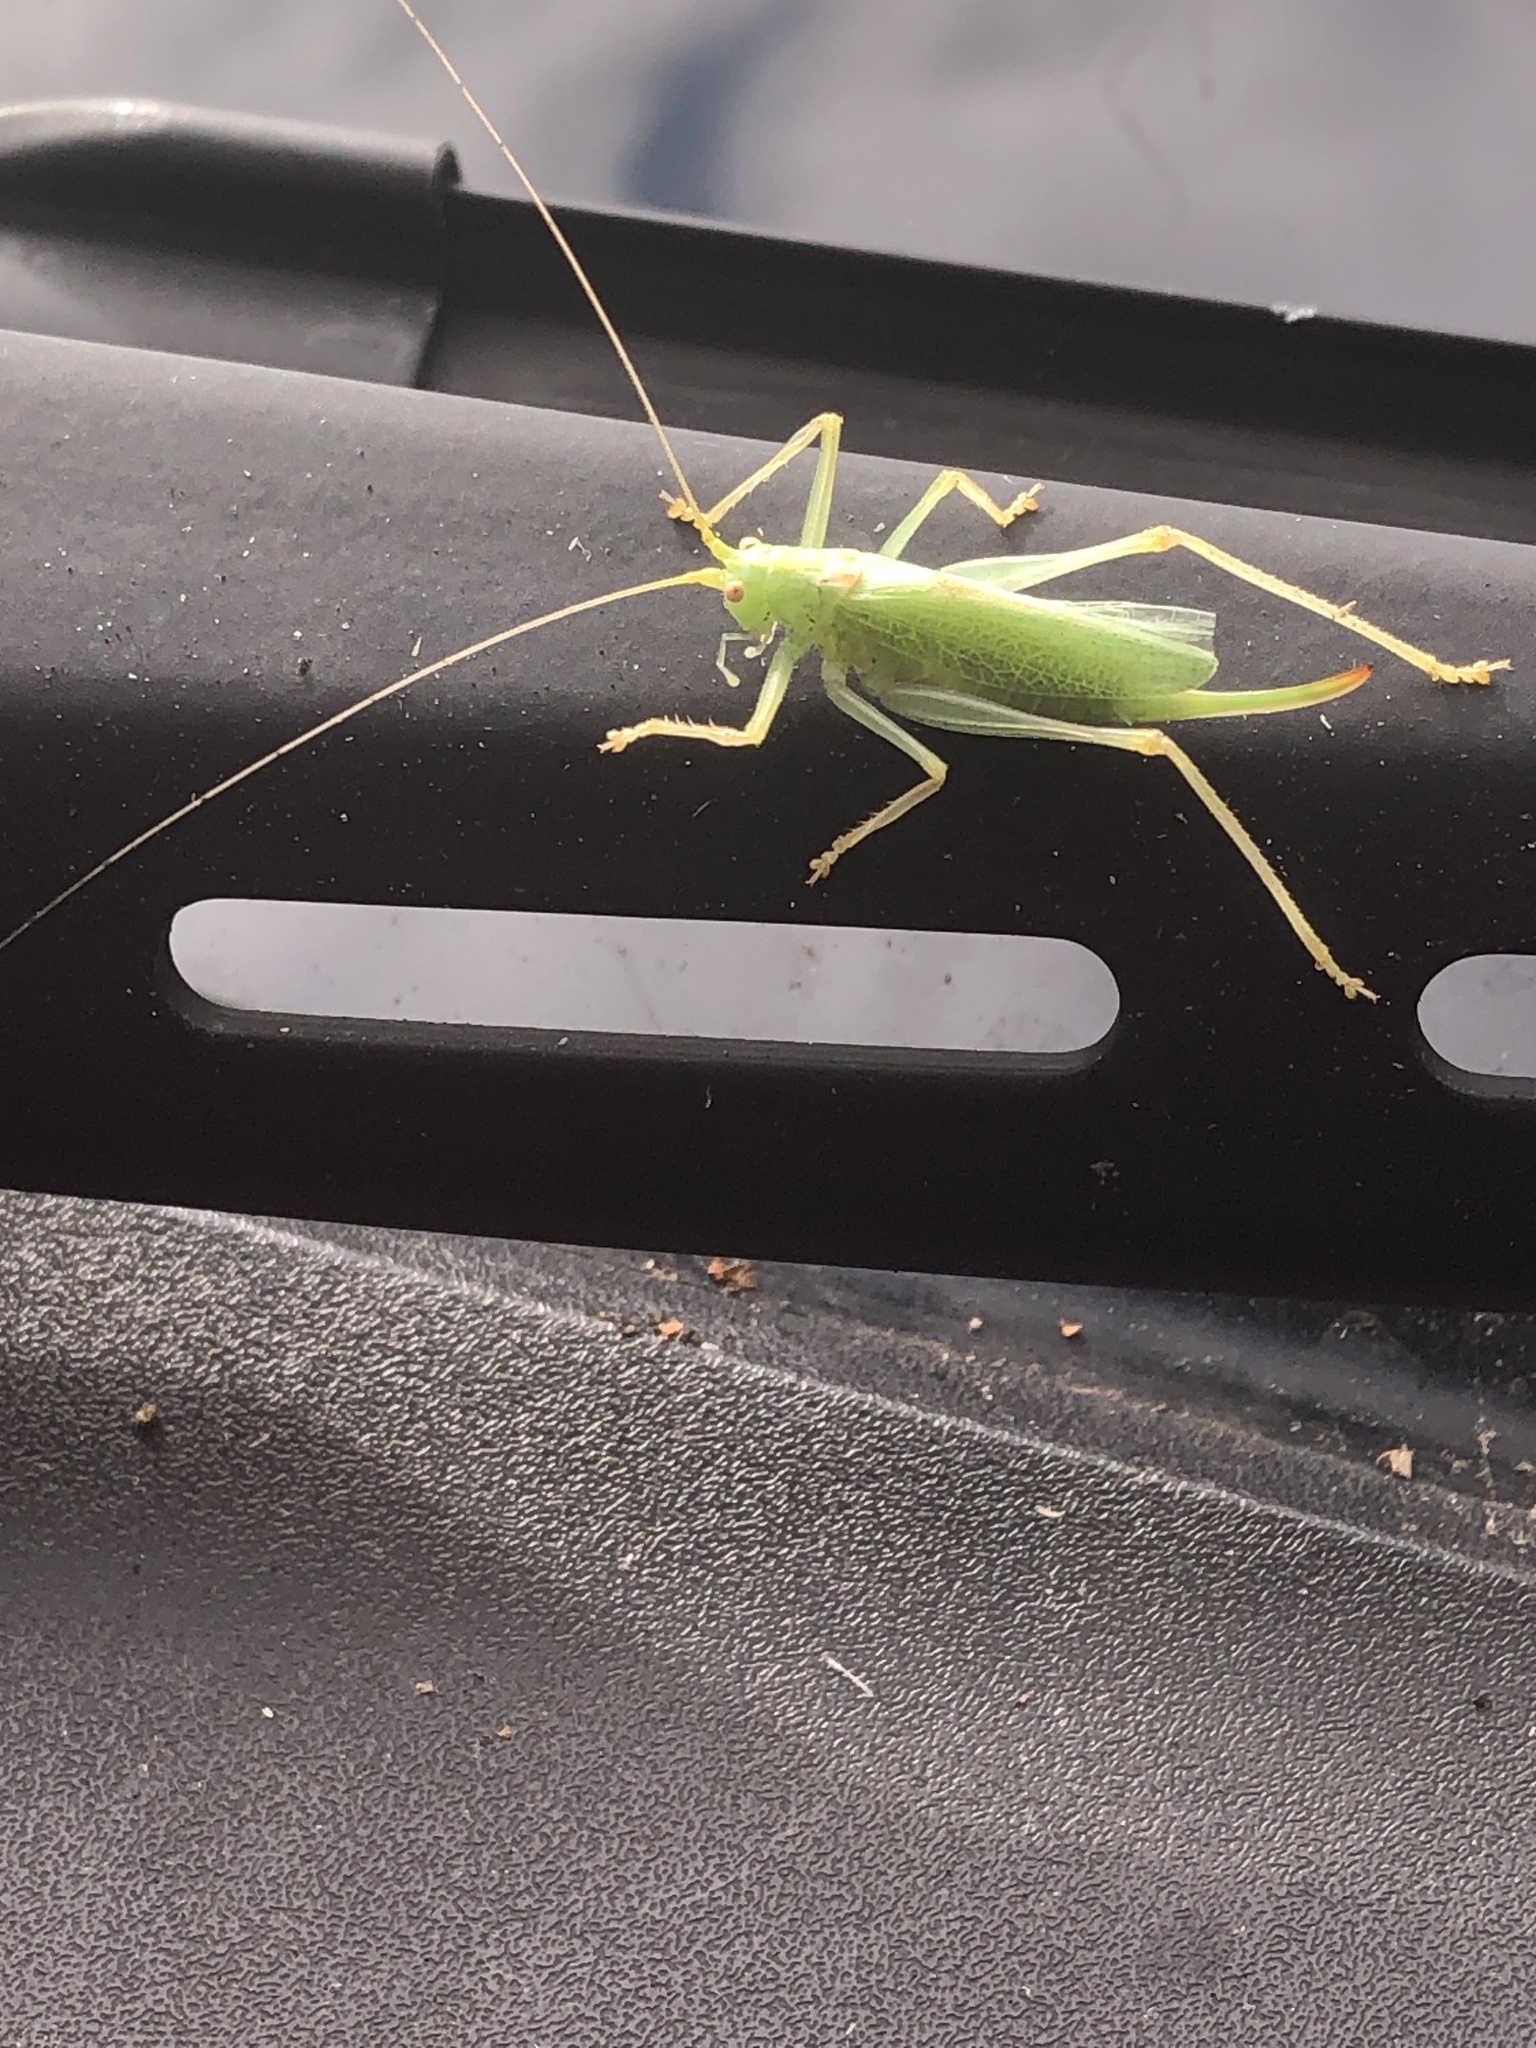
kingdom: Animalia
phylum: Arthropoda
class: Insecta
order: Orthoptera
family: Tettigoniidae
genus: Meconema
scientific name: Meconema thalassinum
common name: Oak bush-cricket
